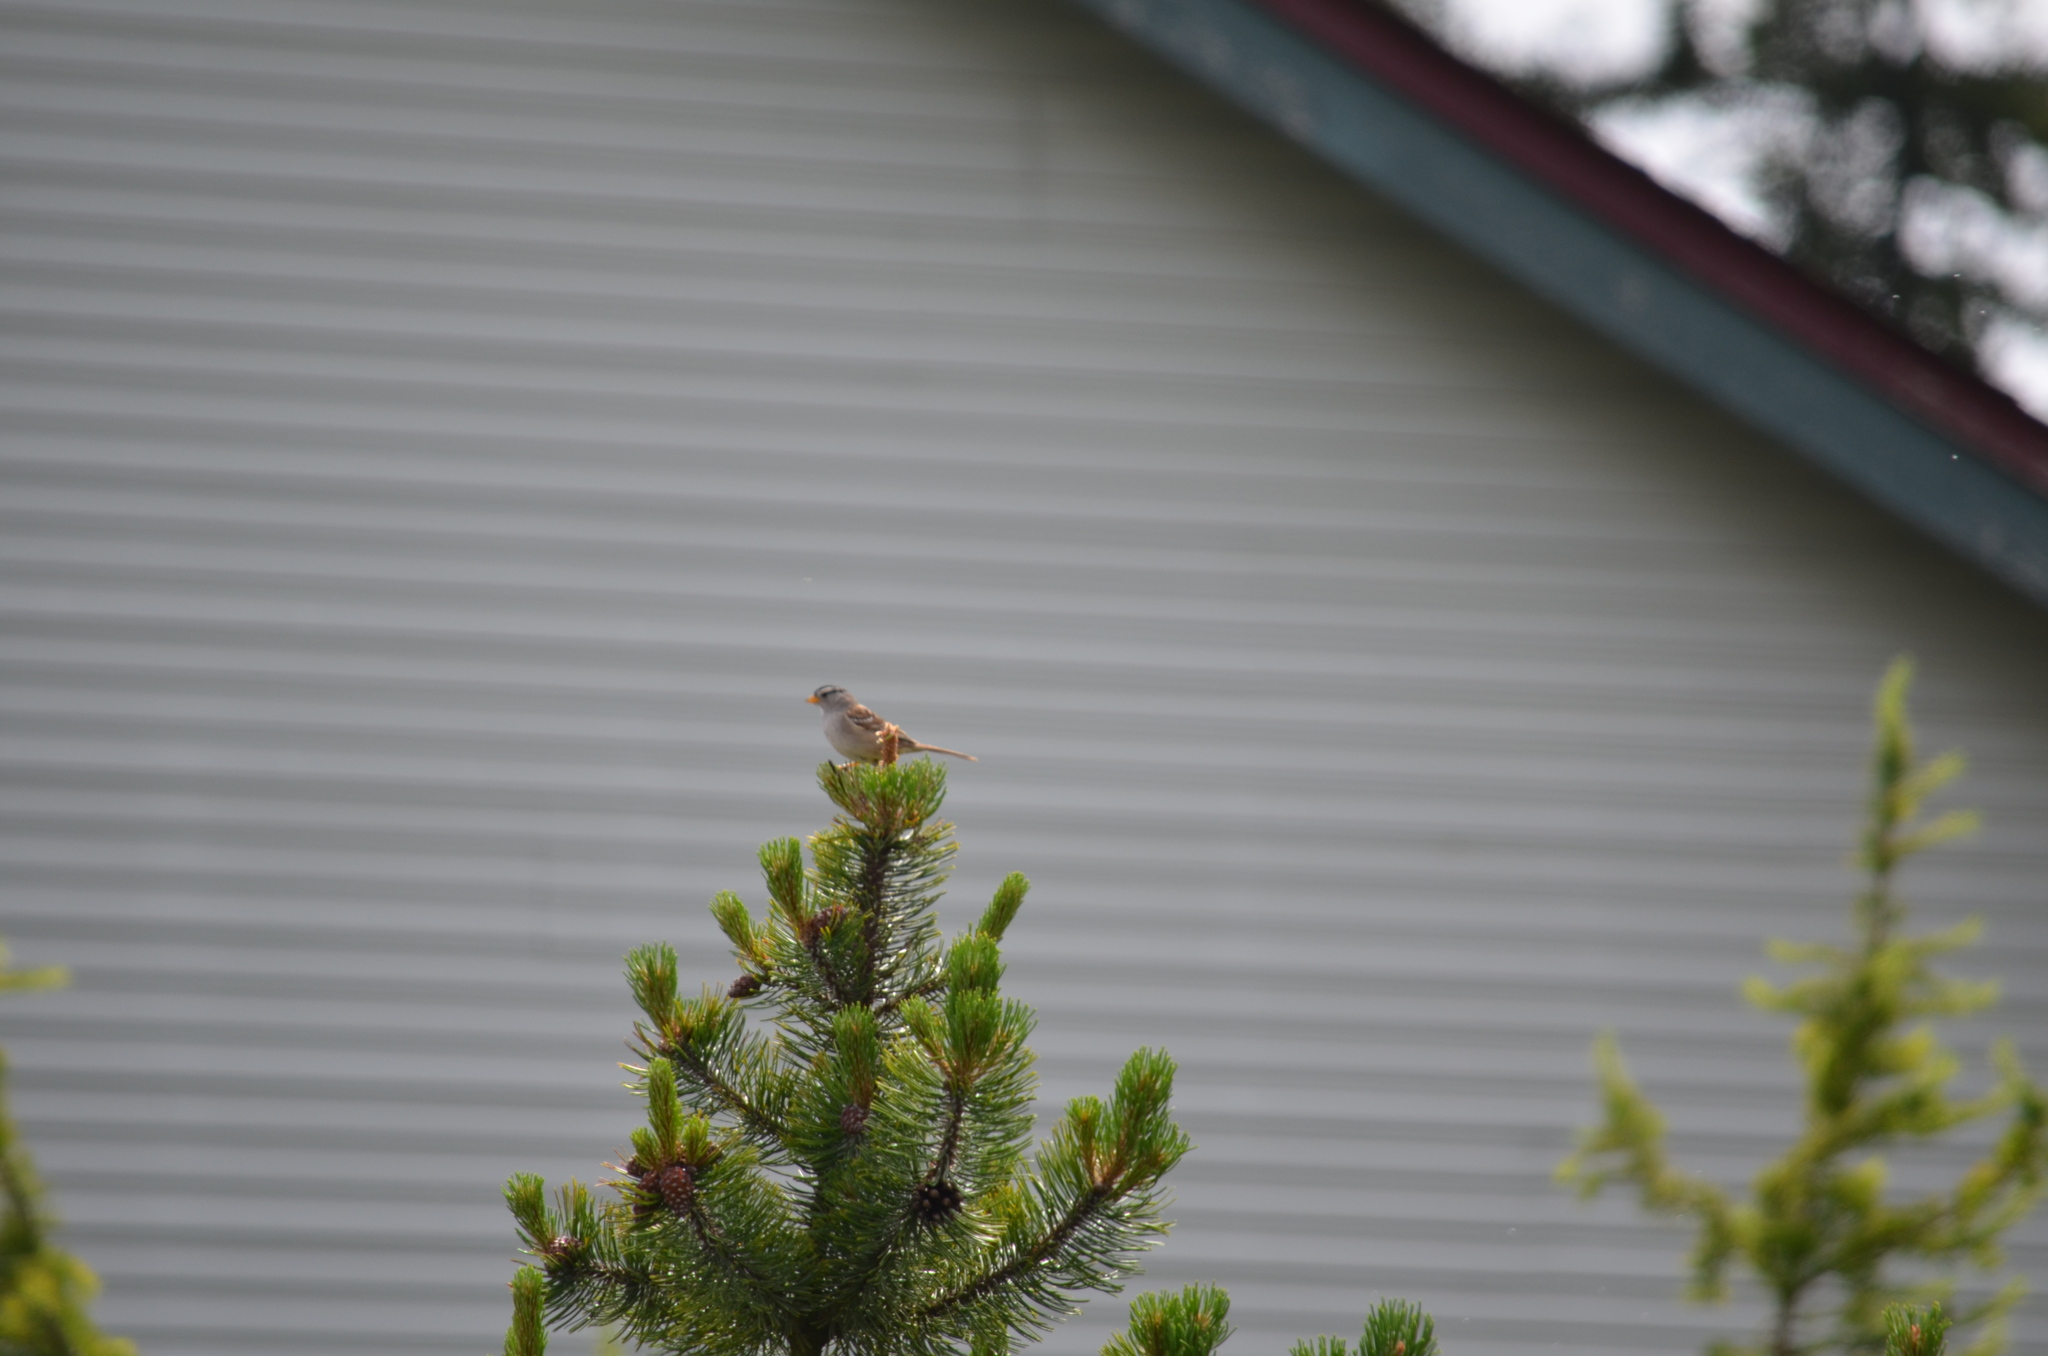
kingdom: Animalia
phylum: Chordata
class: Aves
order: Passeriformes
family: Passerellidae
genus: Zonotrichia
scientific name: Zonotrichia leucophrys
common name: White-crowned sparrow
